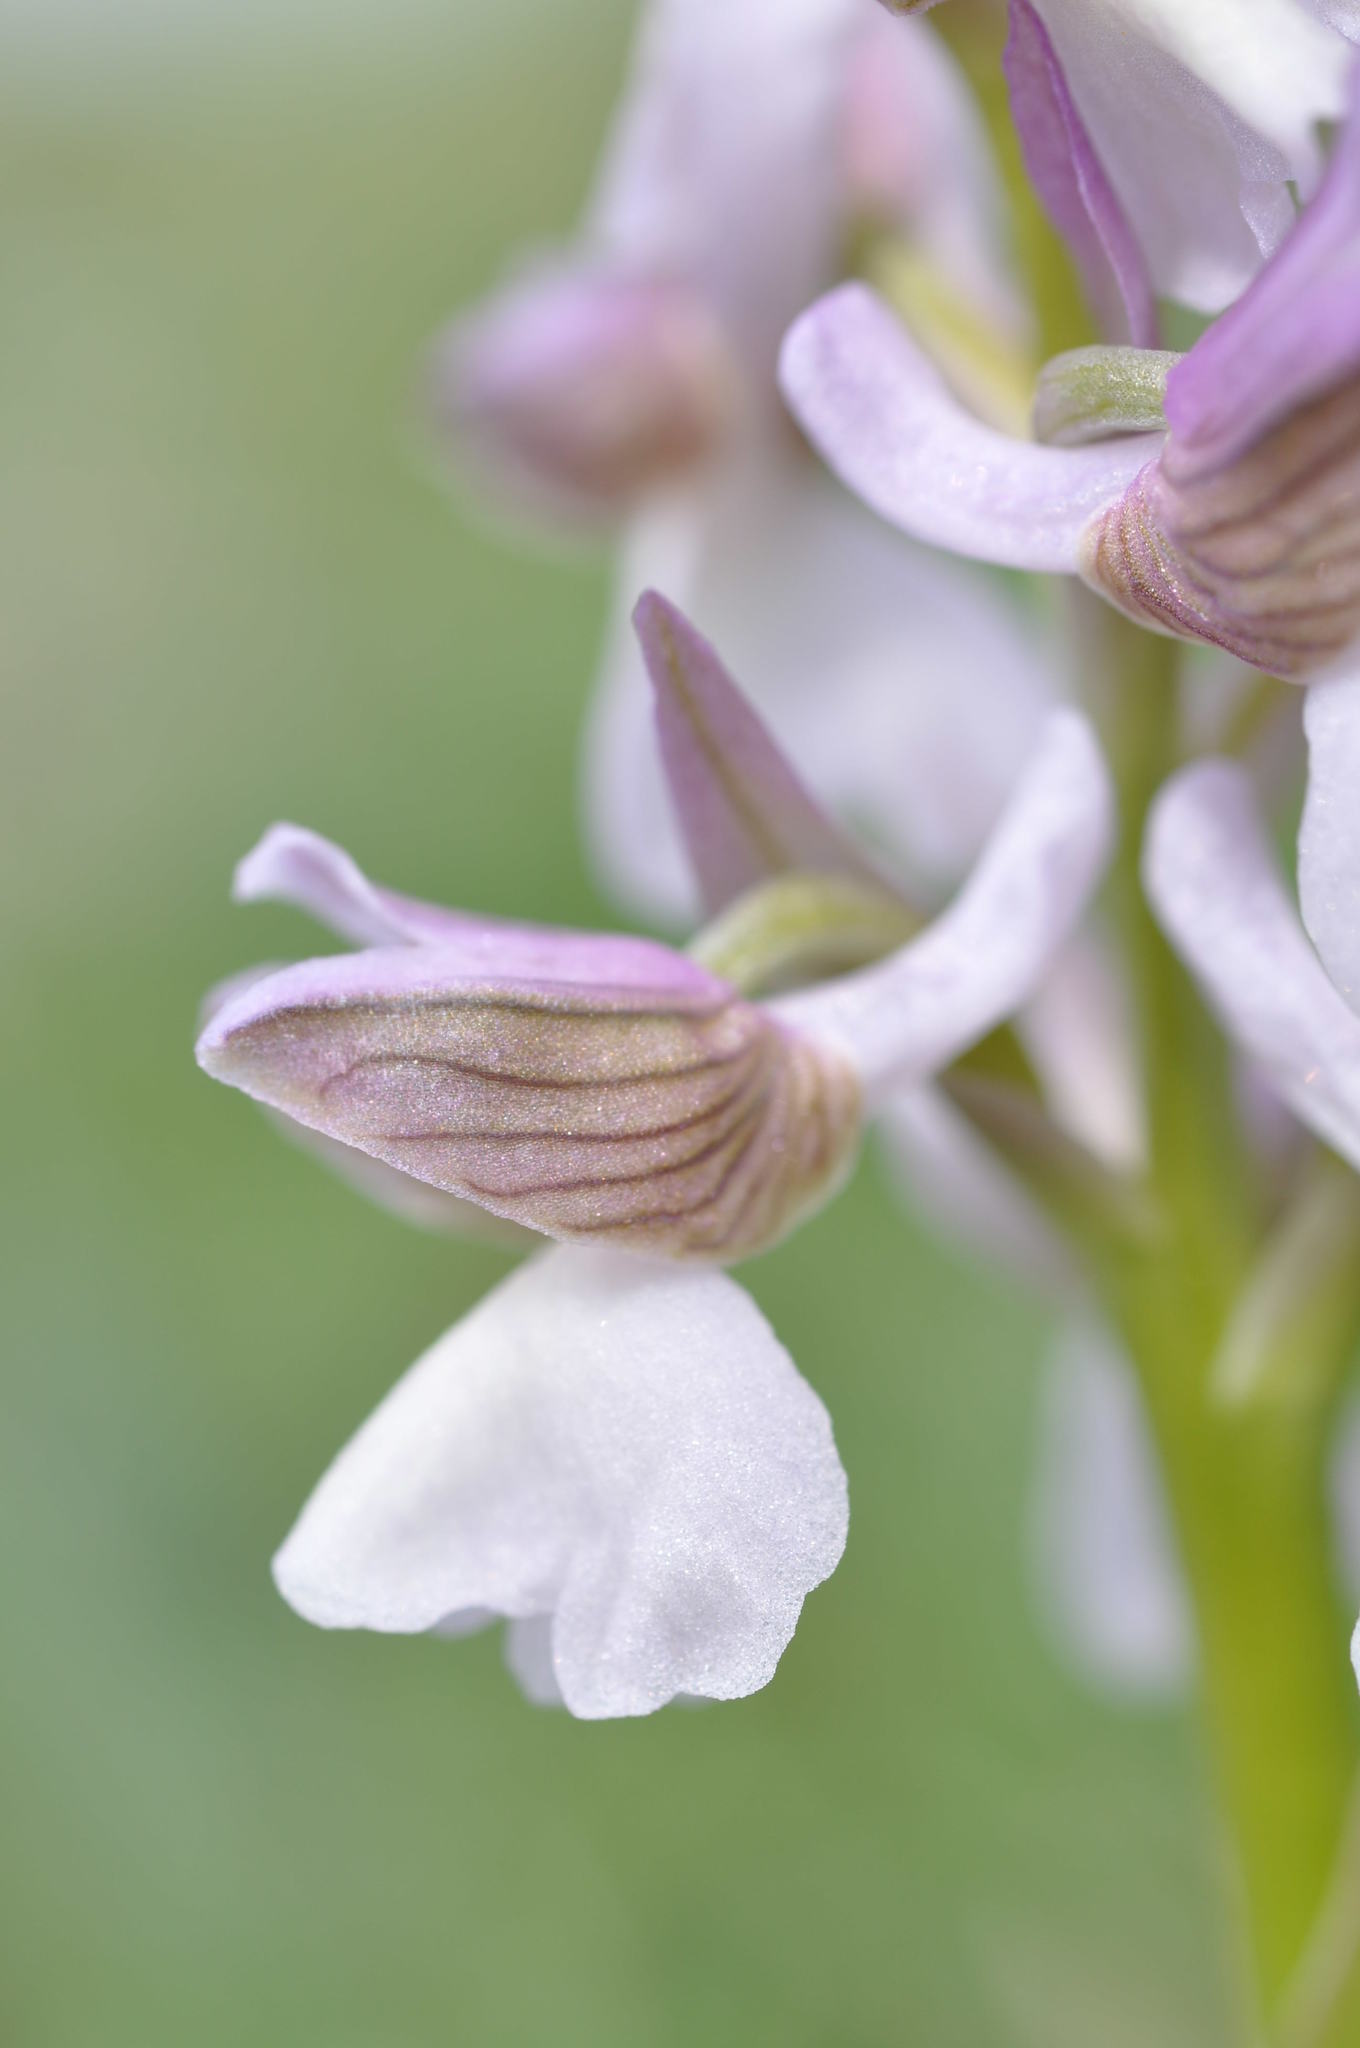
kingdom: Plantae
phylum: Tracheophyta
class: Liliopsida
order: Asparagales
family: Orchidaceae
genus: Anacamptis
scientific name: Anacamptis morio
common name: Green-winged orchid
